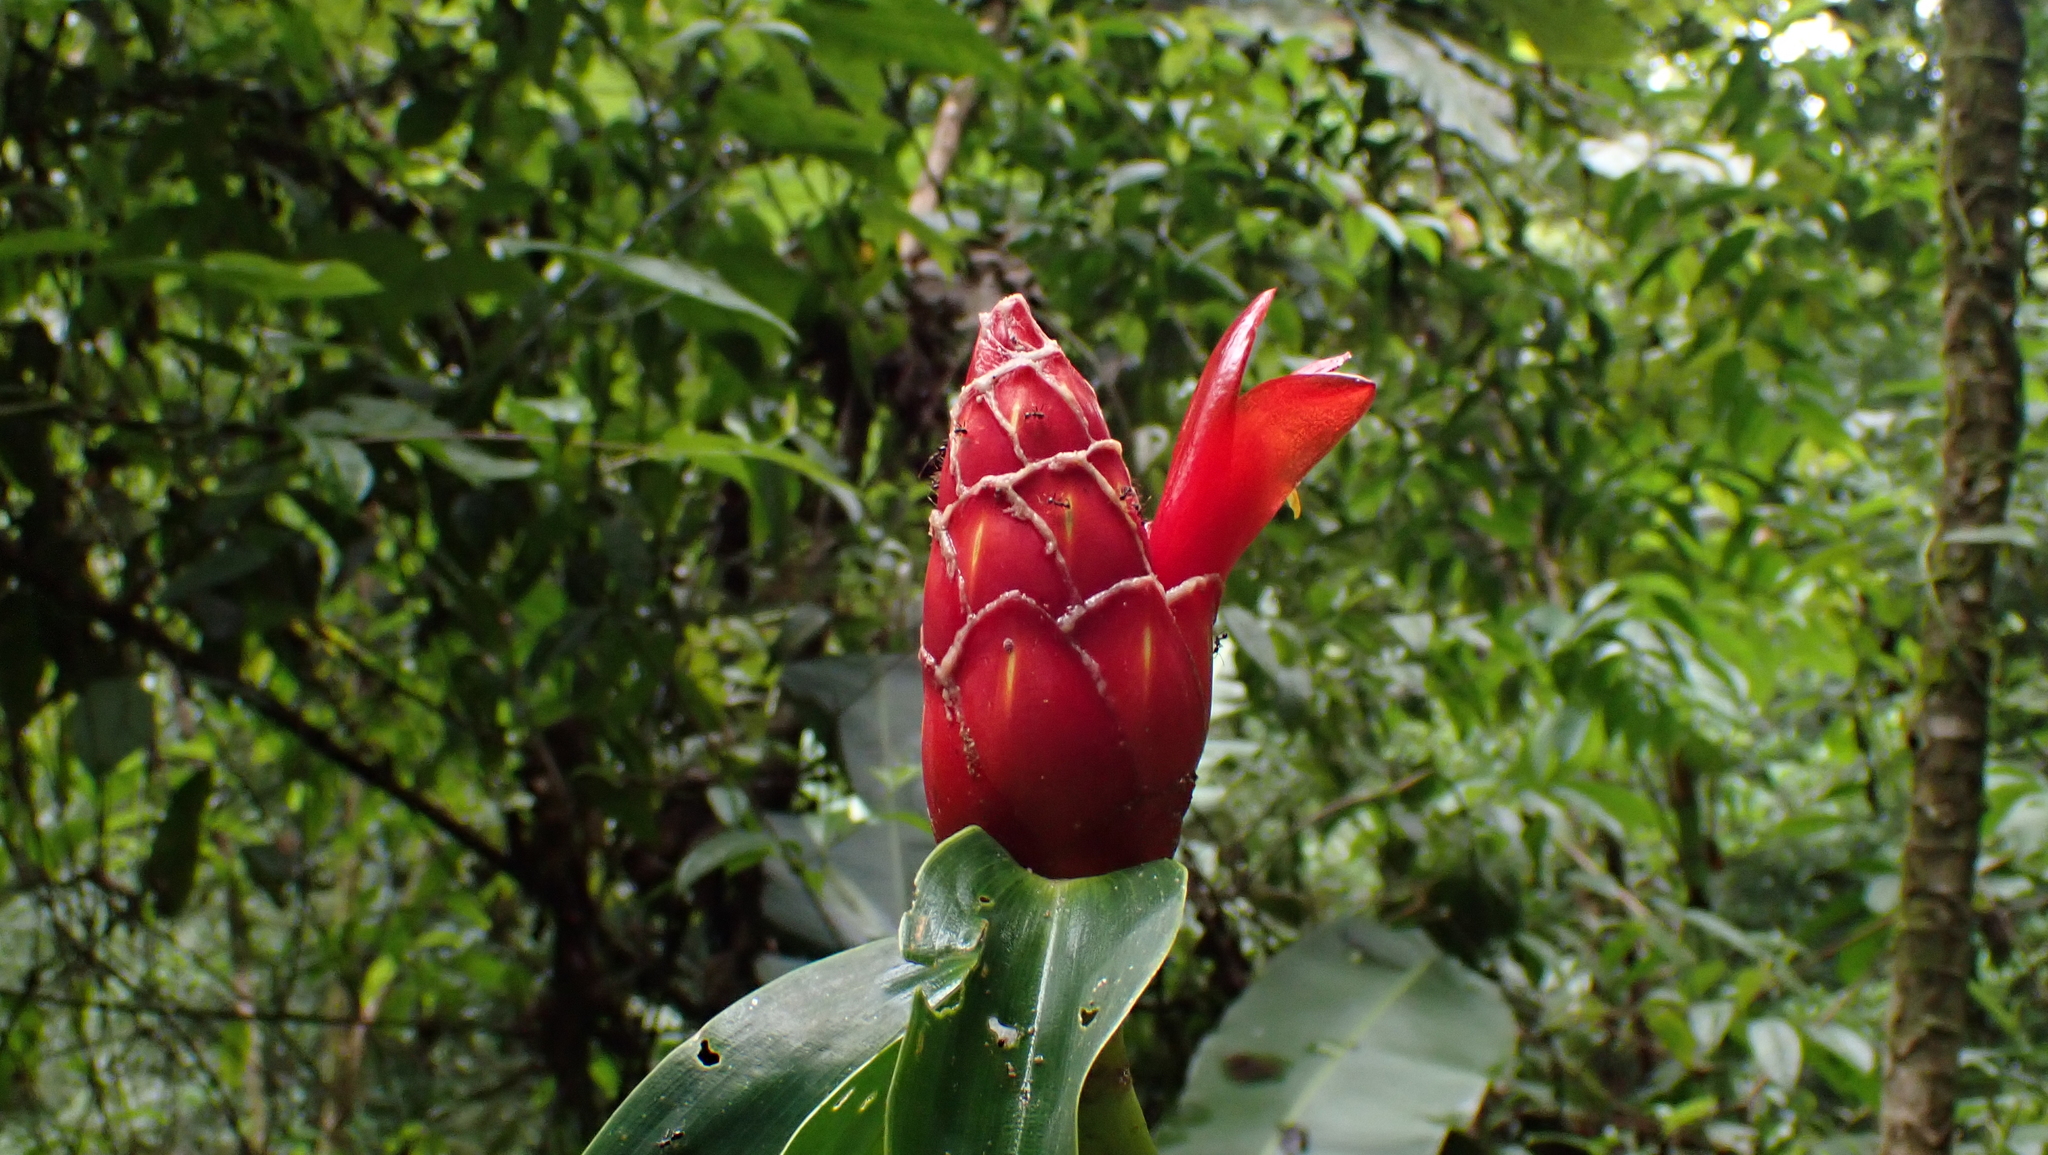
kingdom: Plantae
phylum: Tracheophyta
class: Liliopsida
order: Zingiberales
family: Costaceae
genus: Costus
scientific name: Costus pulverulentus
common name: Spiral ginger
